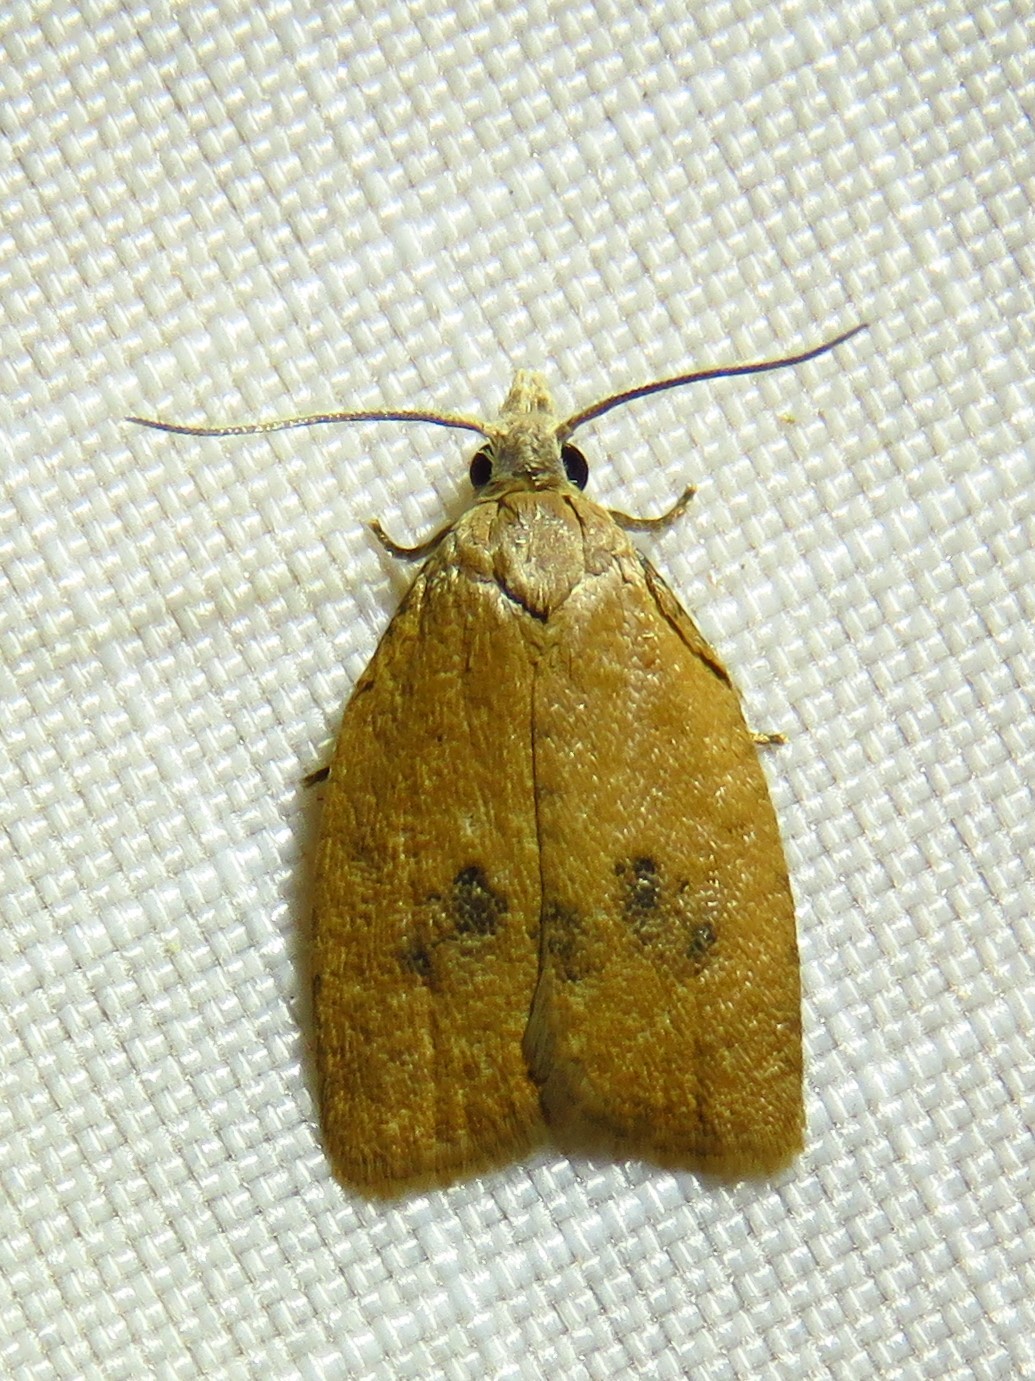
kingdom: Animalia
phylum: Arthropoda
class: Insecta
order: Lepidoptera
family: Tortricidae
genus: Sparganothoides
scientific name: Sparganothoides lentiginosana
